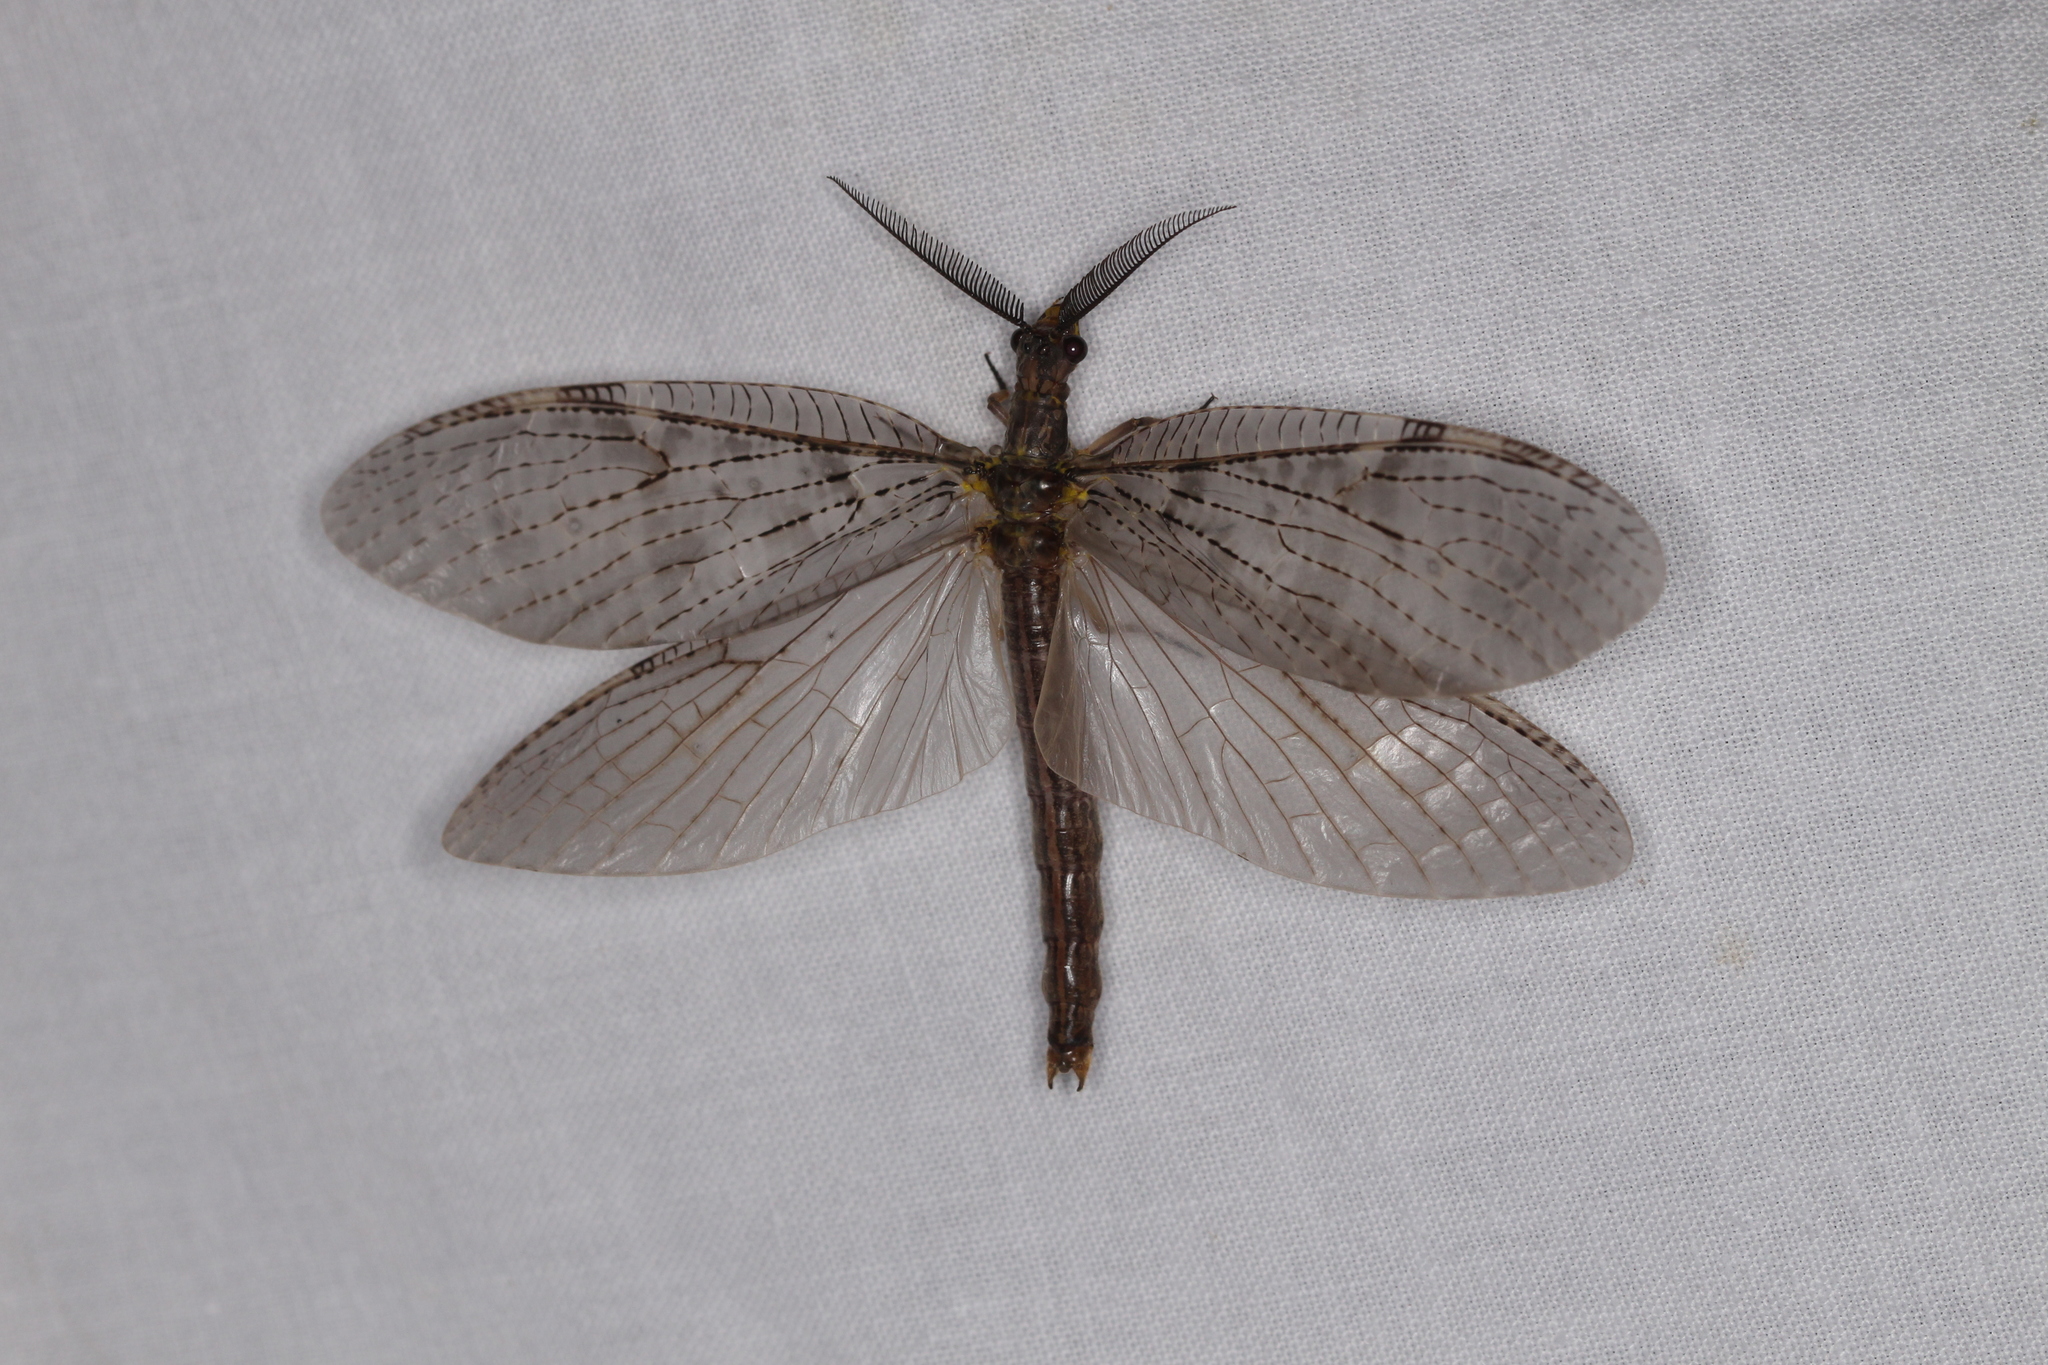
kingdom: Animalia
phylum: Arthropoda
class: Insecta
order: Megaloptera
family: Corydalidae
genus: Chauliodes
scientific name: Chauliodes pectinicornis
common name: Summer fishfly
